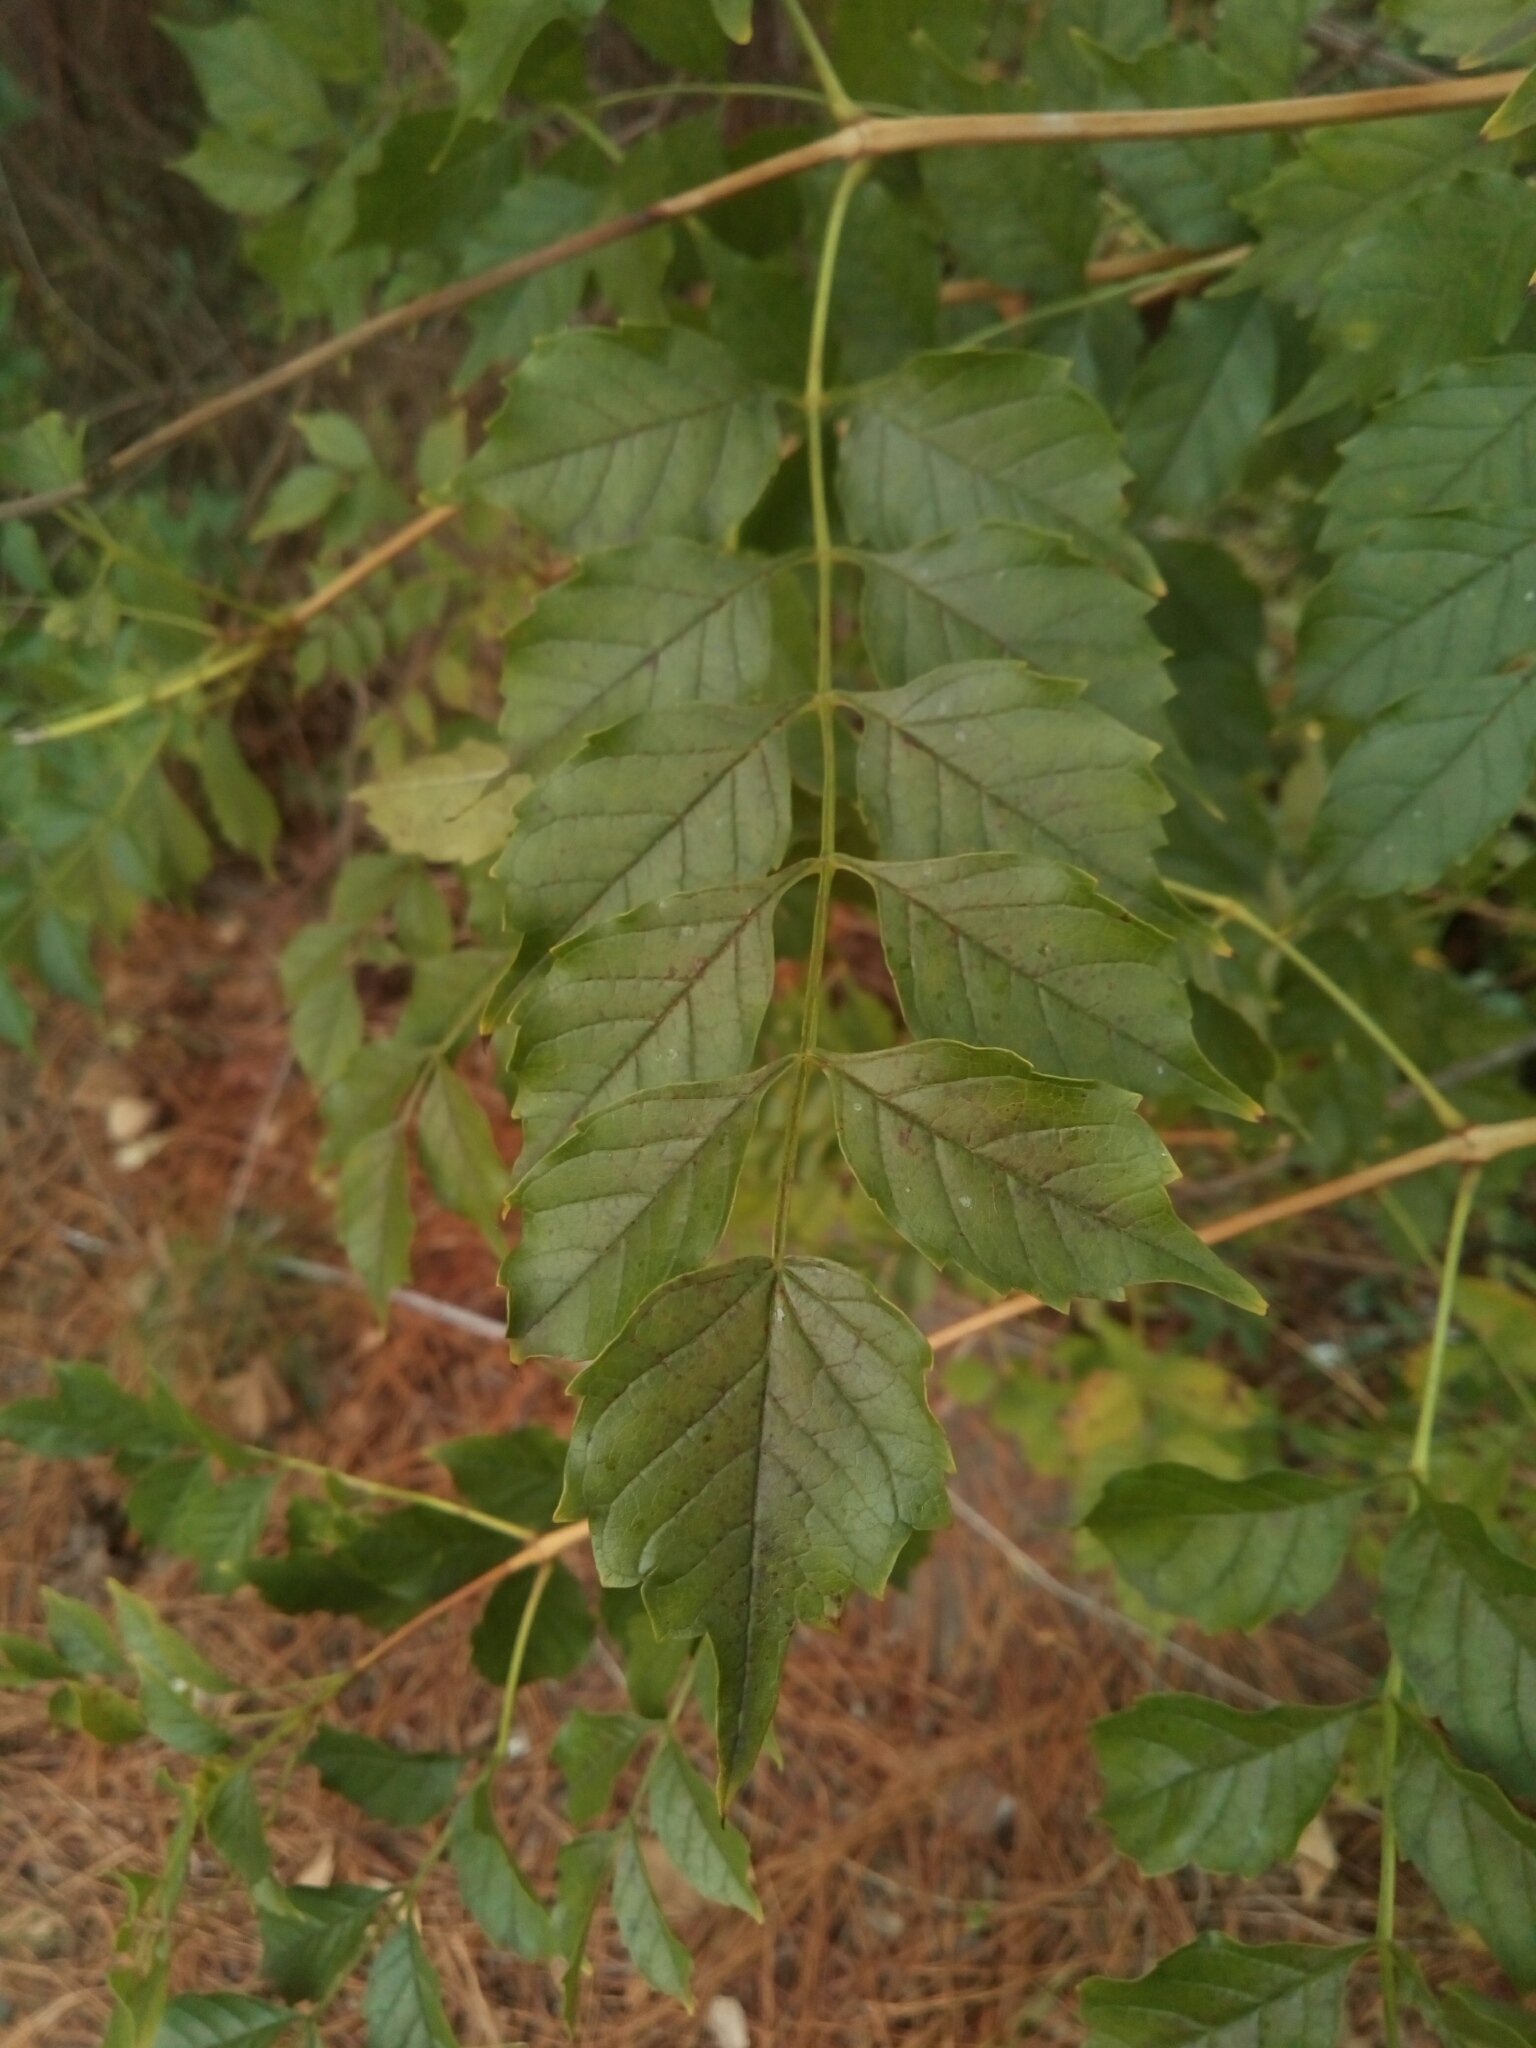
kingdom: Plantae
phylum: Tracheophyta
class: Magnoliopsida
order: Lamiales
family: Bignoniaceae
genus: Campsis
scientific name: Campsis radicans
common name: Trumpet-creeper
